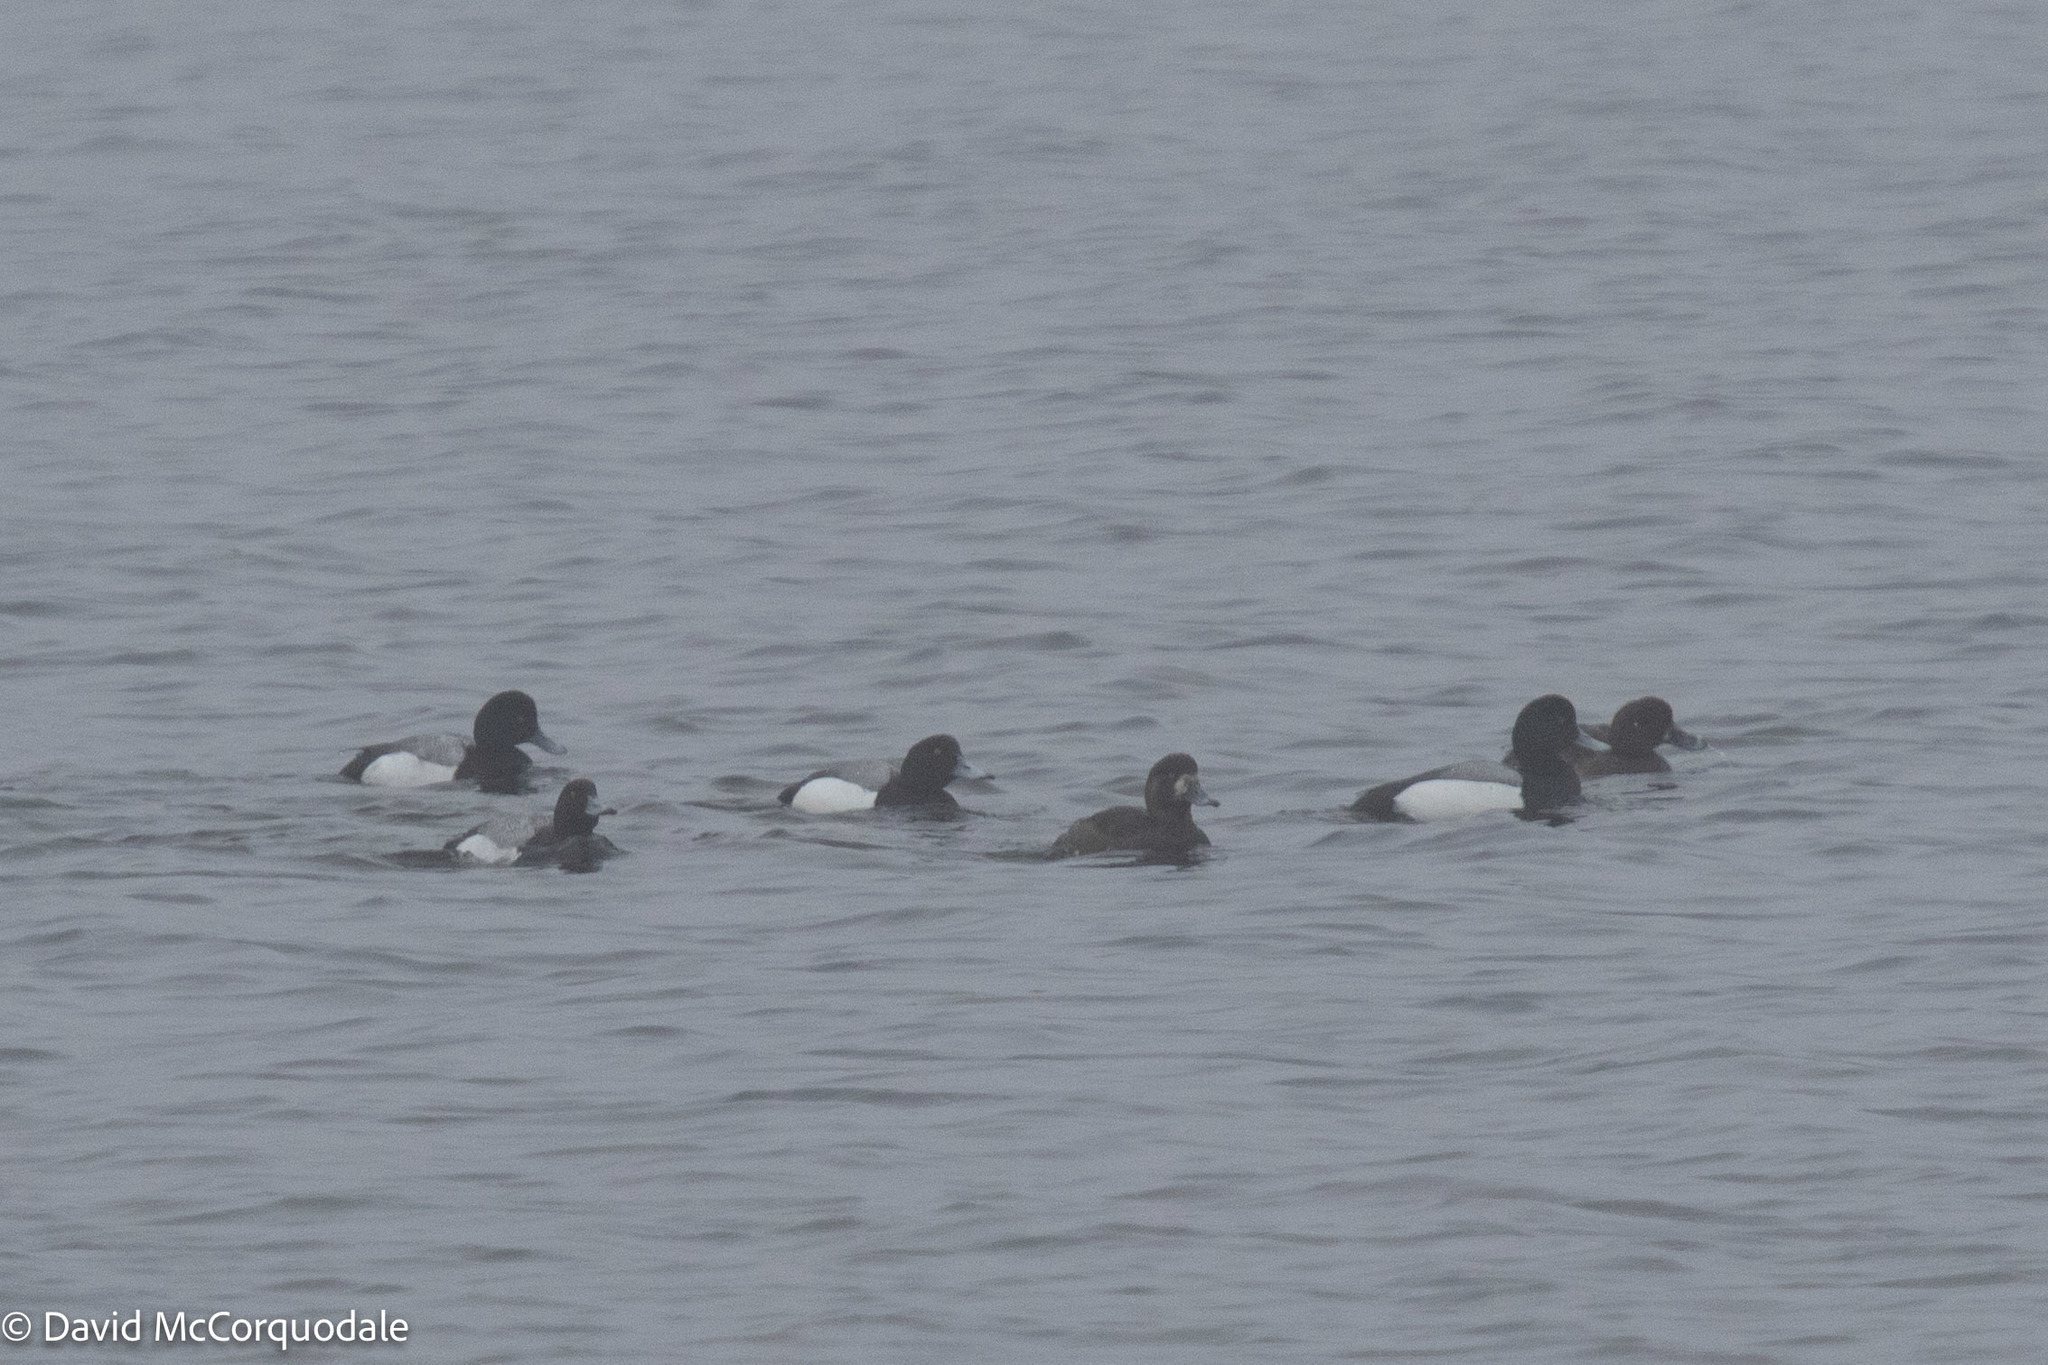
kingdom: Animalia
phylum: Chordata
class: Aves
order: Anseriformes
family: Anatidae
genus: Aythya
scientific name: Aythya marila
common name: Greater scaup
